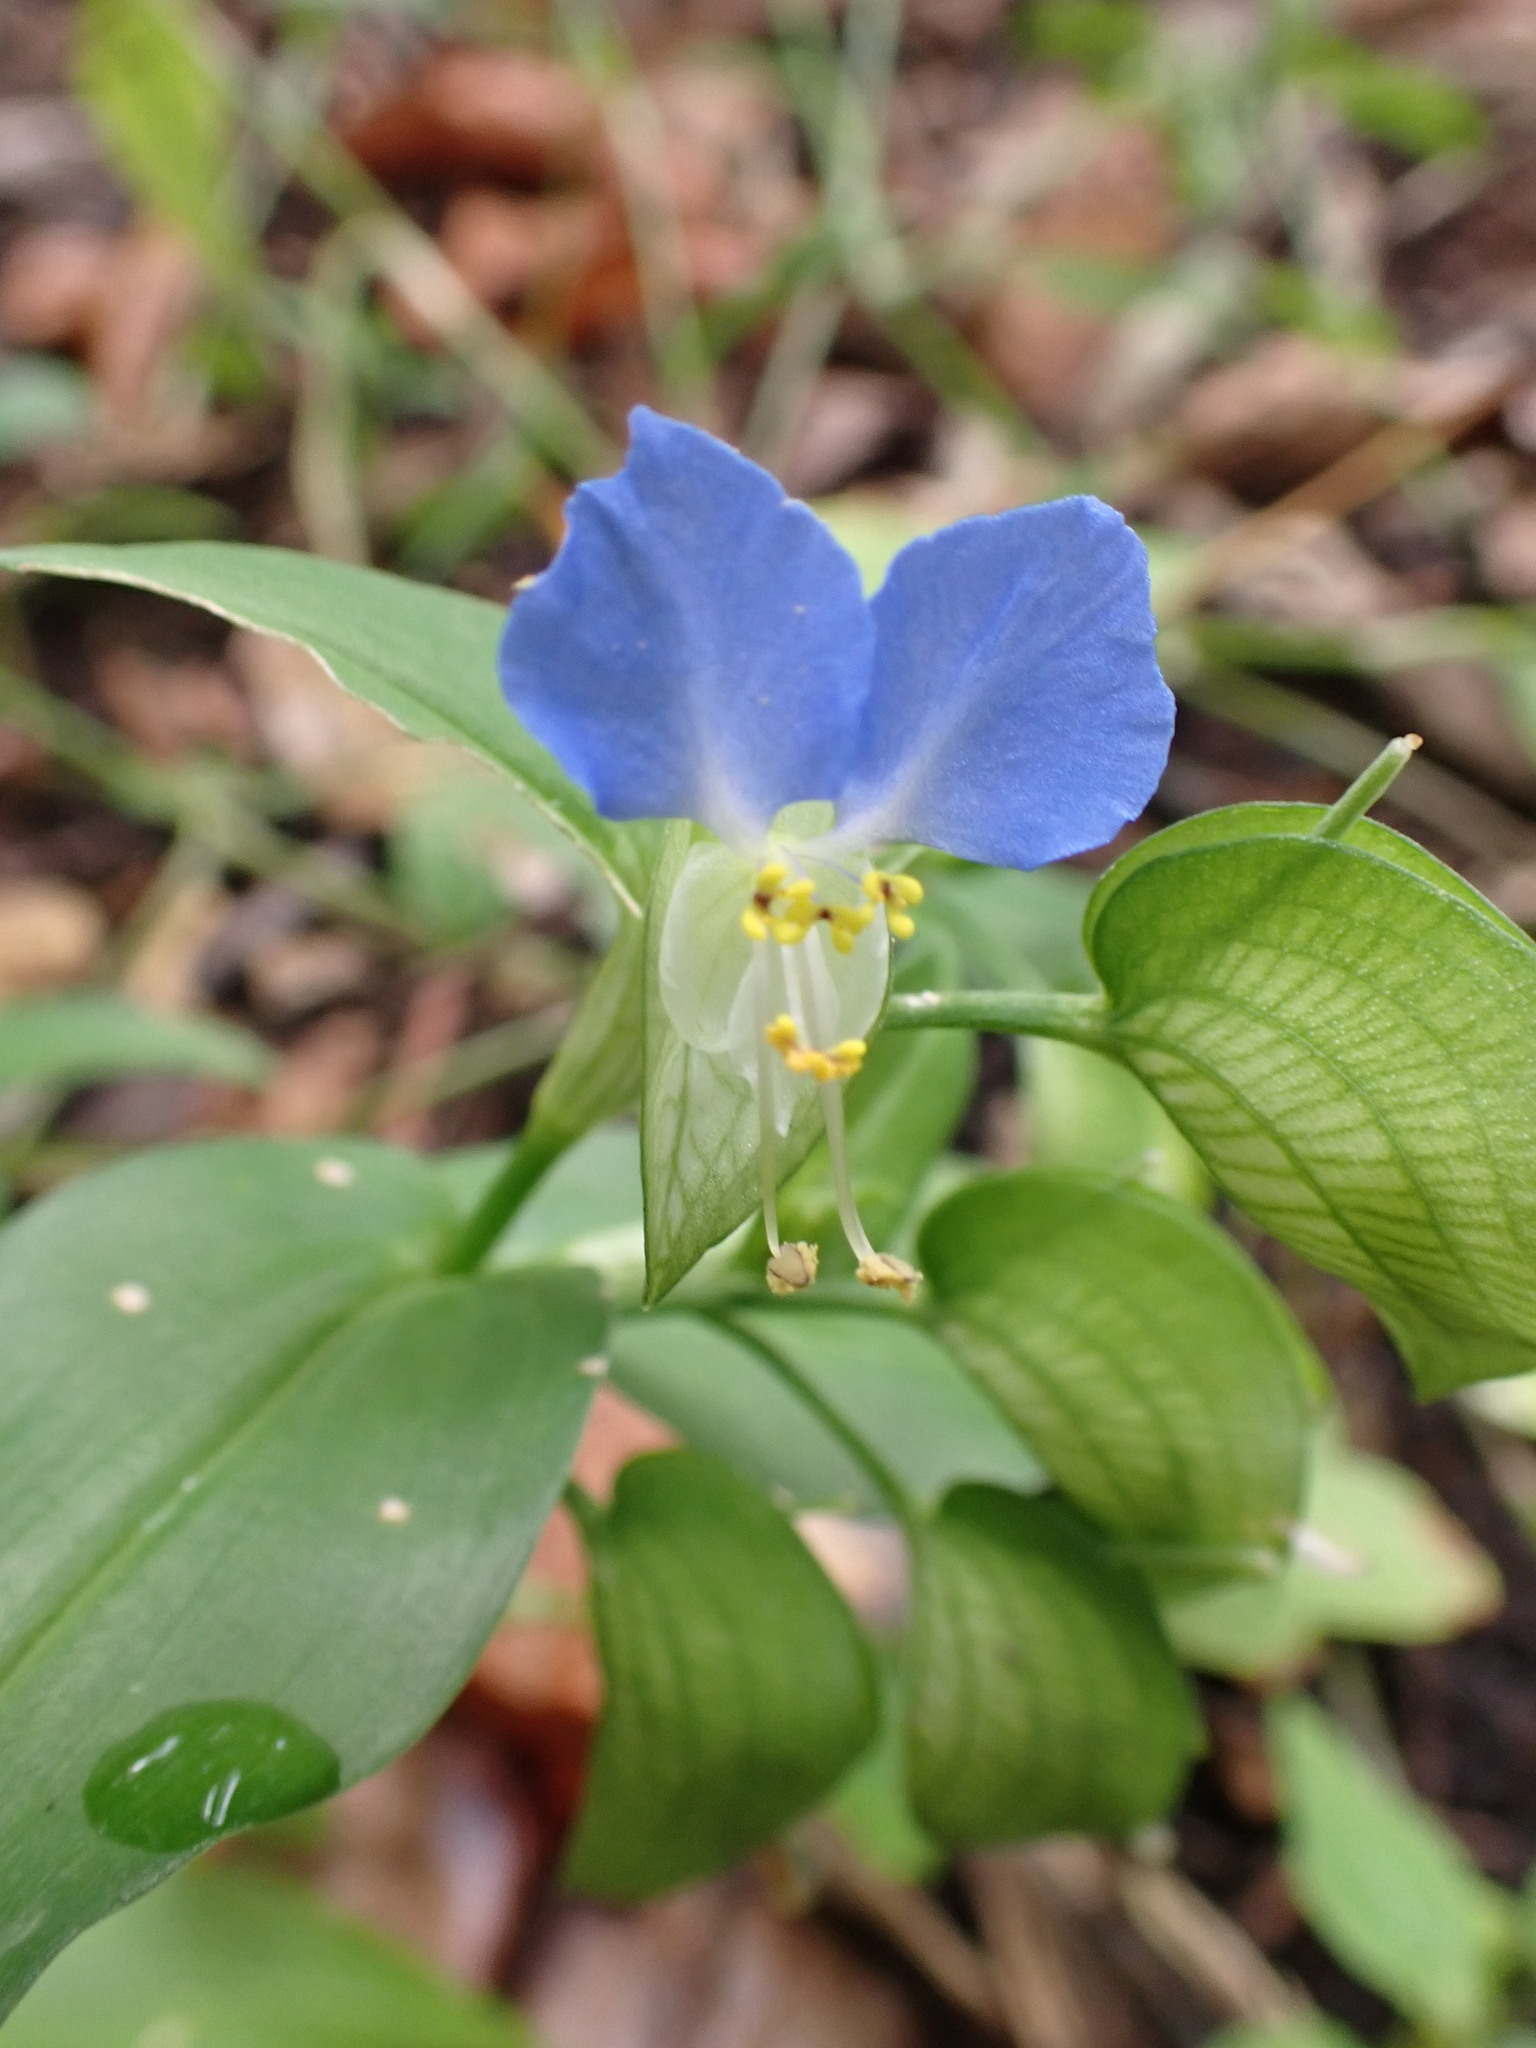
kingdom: Plantae
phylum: Tracheophyta
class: Liliopsida
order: Commelinales
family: Commelinaceae
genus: Commelina
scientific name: Commelina communis
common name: Asiatic dayflower
